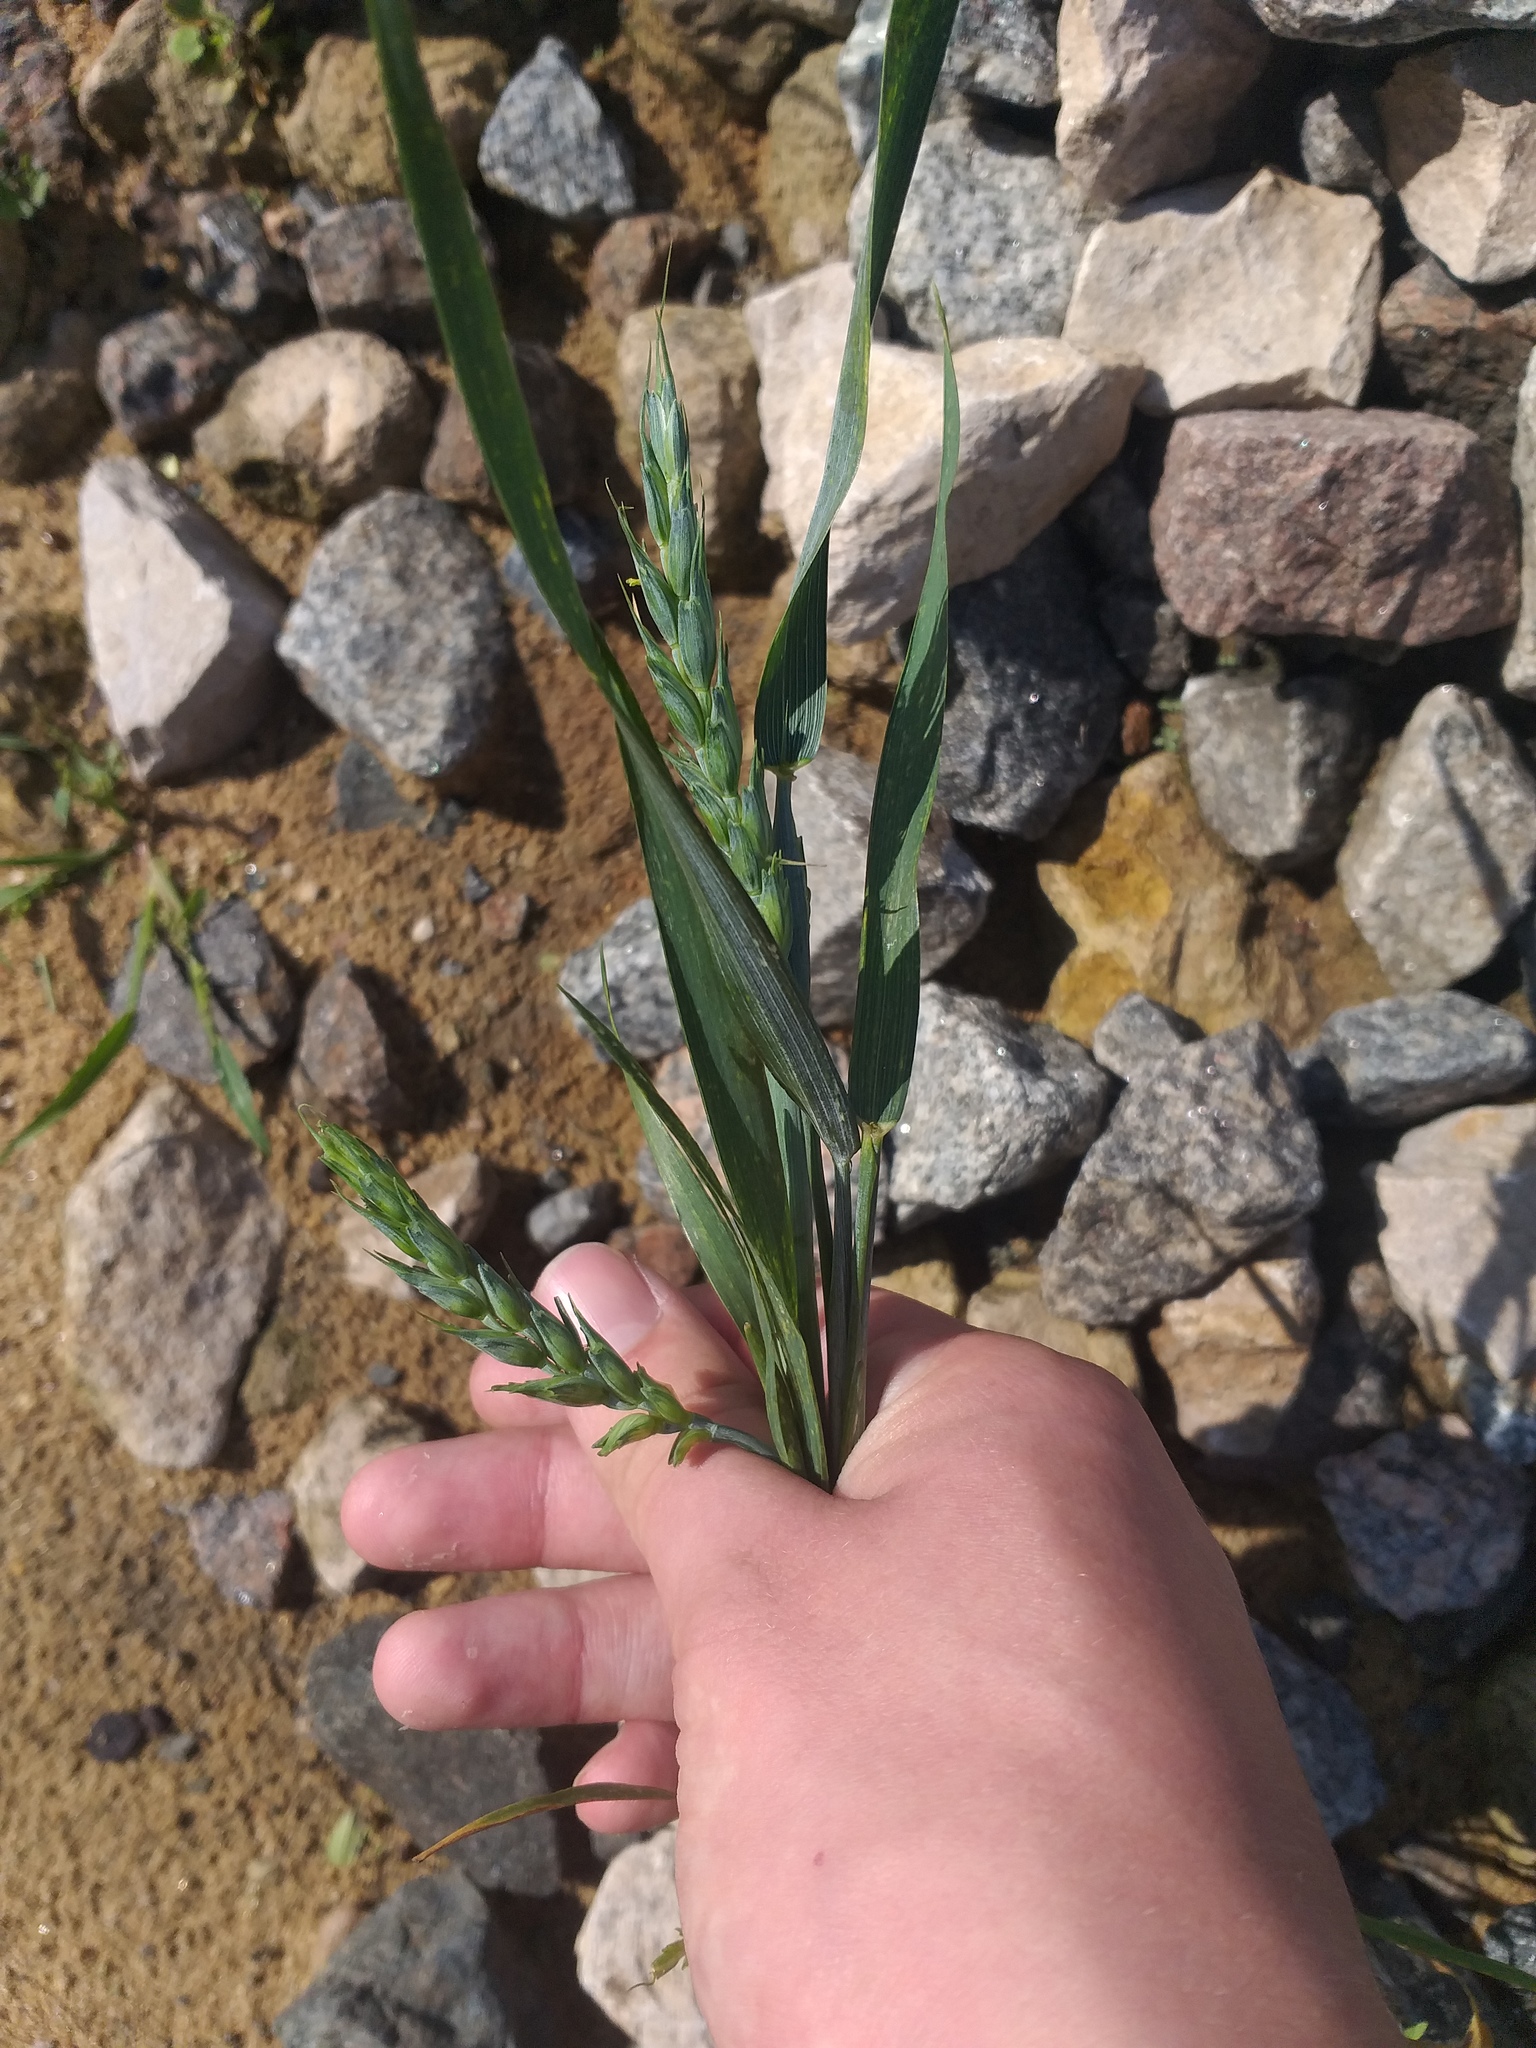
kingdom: Plantae
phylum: Tracheophyta
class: Liliopsida
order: Poales
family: Poaceae
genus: Triticum
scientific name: Triticum aestivum
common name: Common wheat
